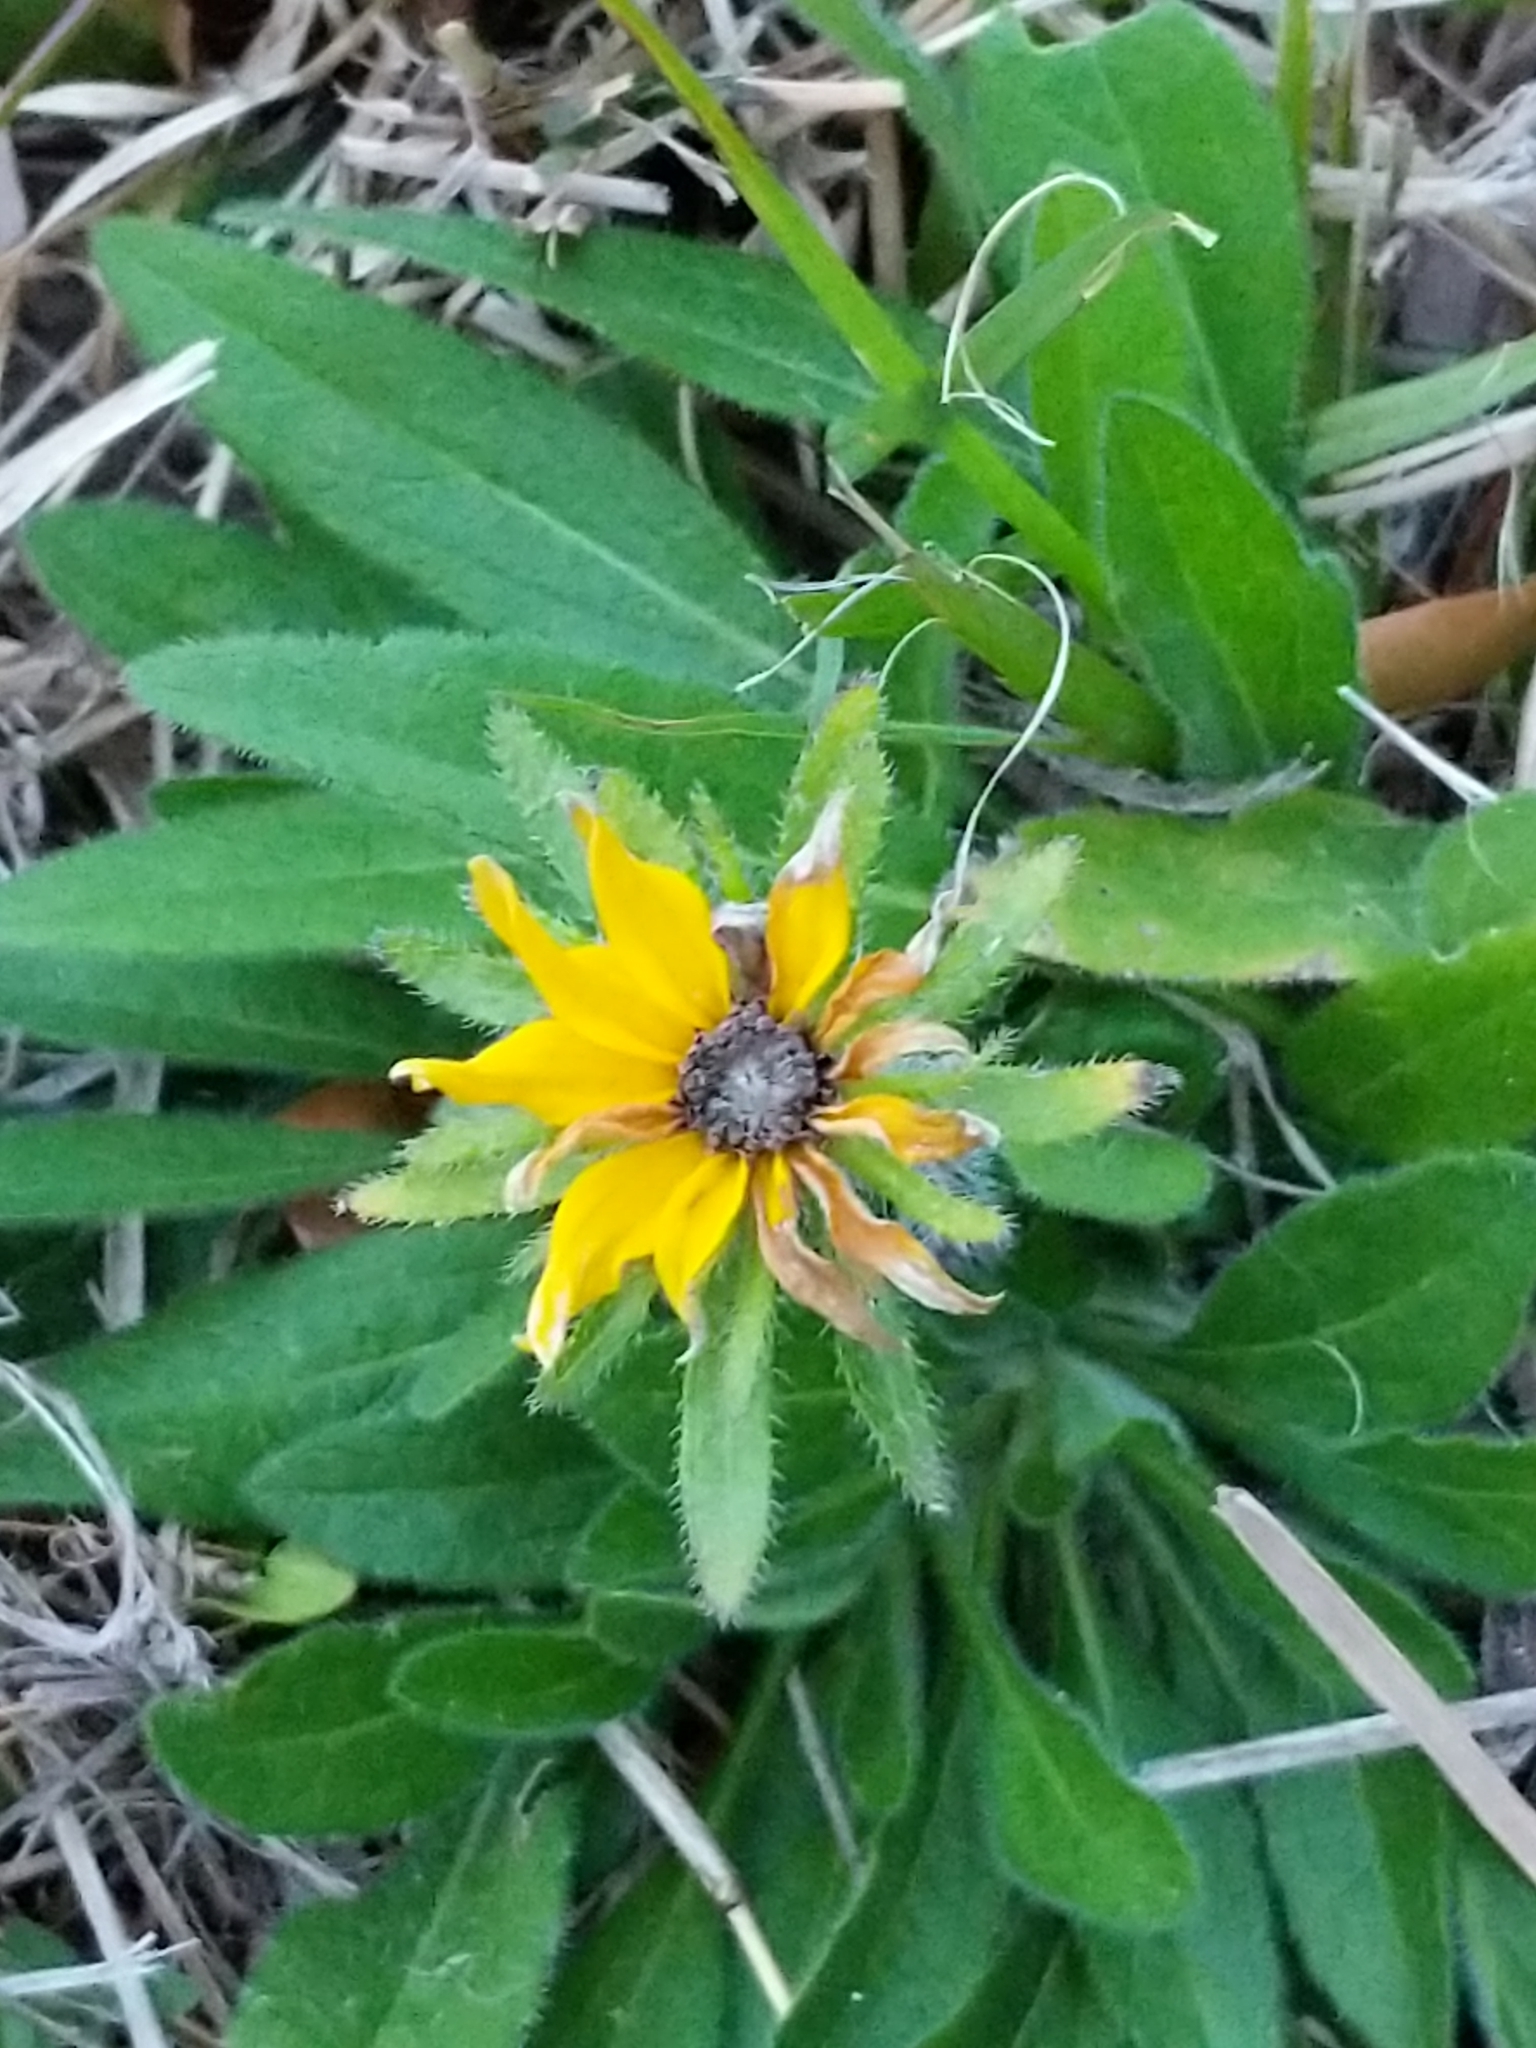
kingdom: Plantae
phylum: Tracheophyta
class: Magnoliopsida
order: Asterales
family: Asteraceae
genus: Rudbeckia
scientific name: Rudbeckia hirta
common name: Black-eyed-susan
